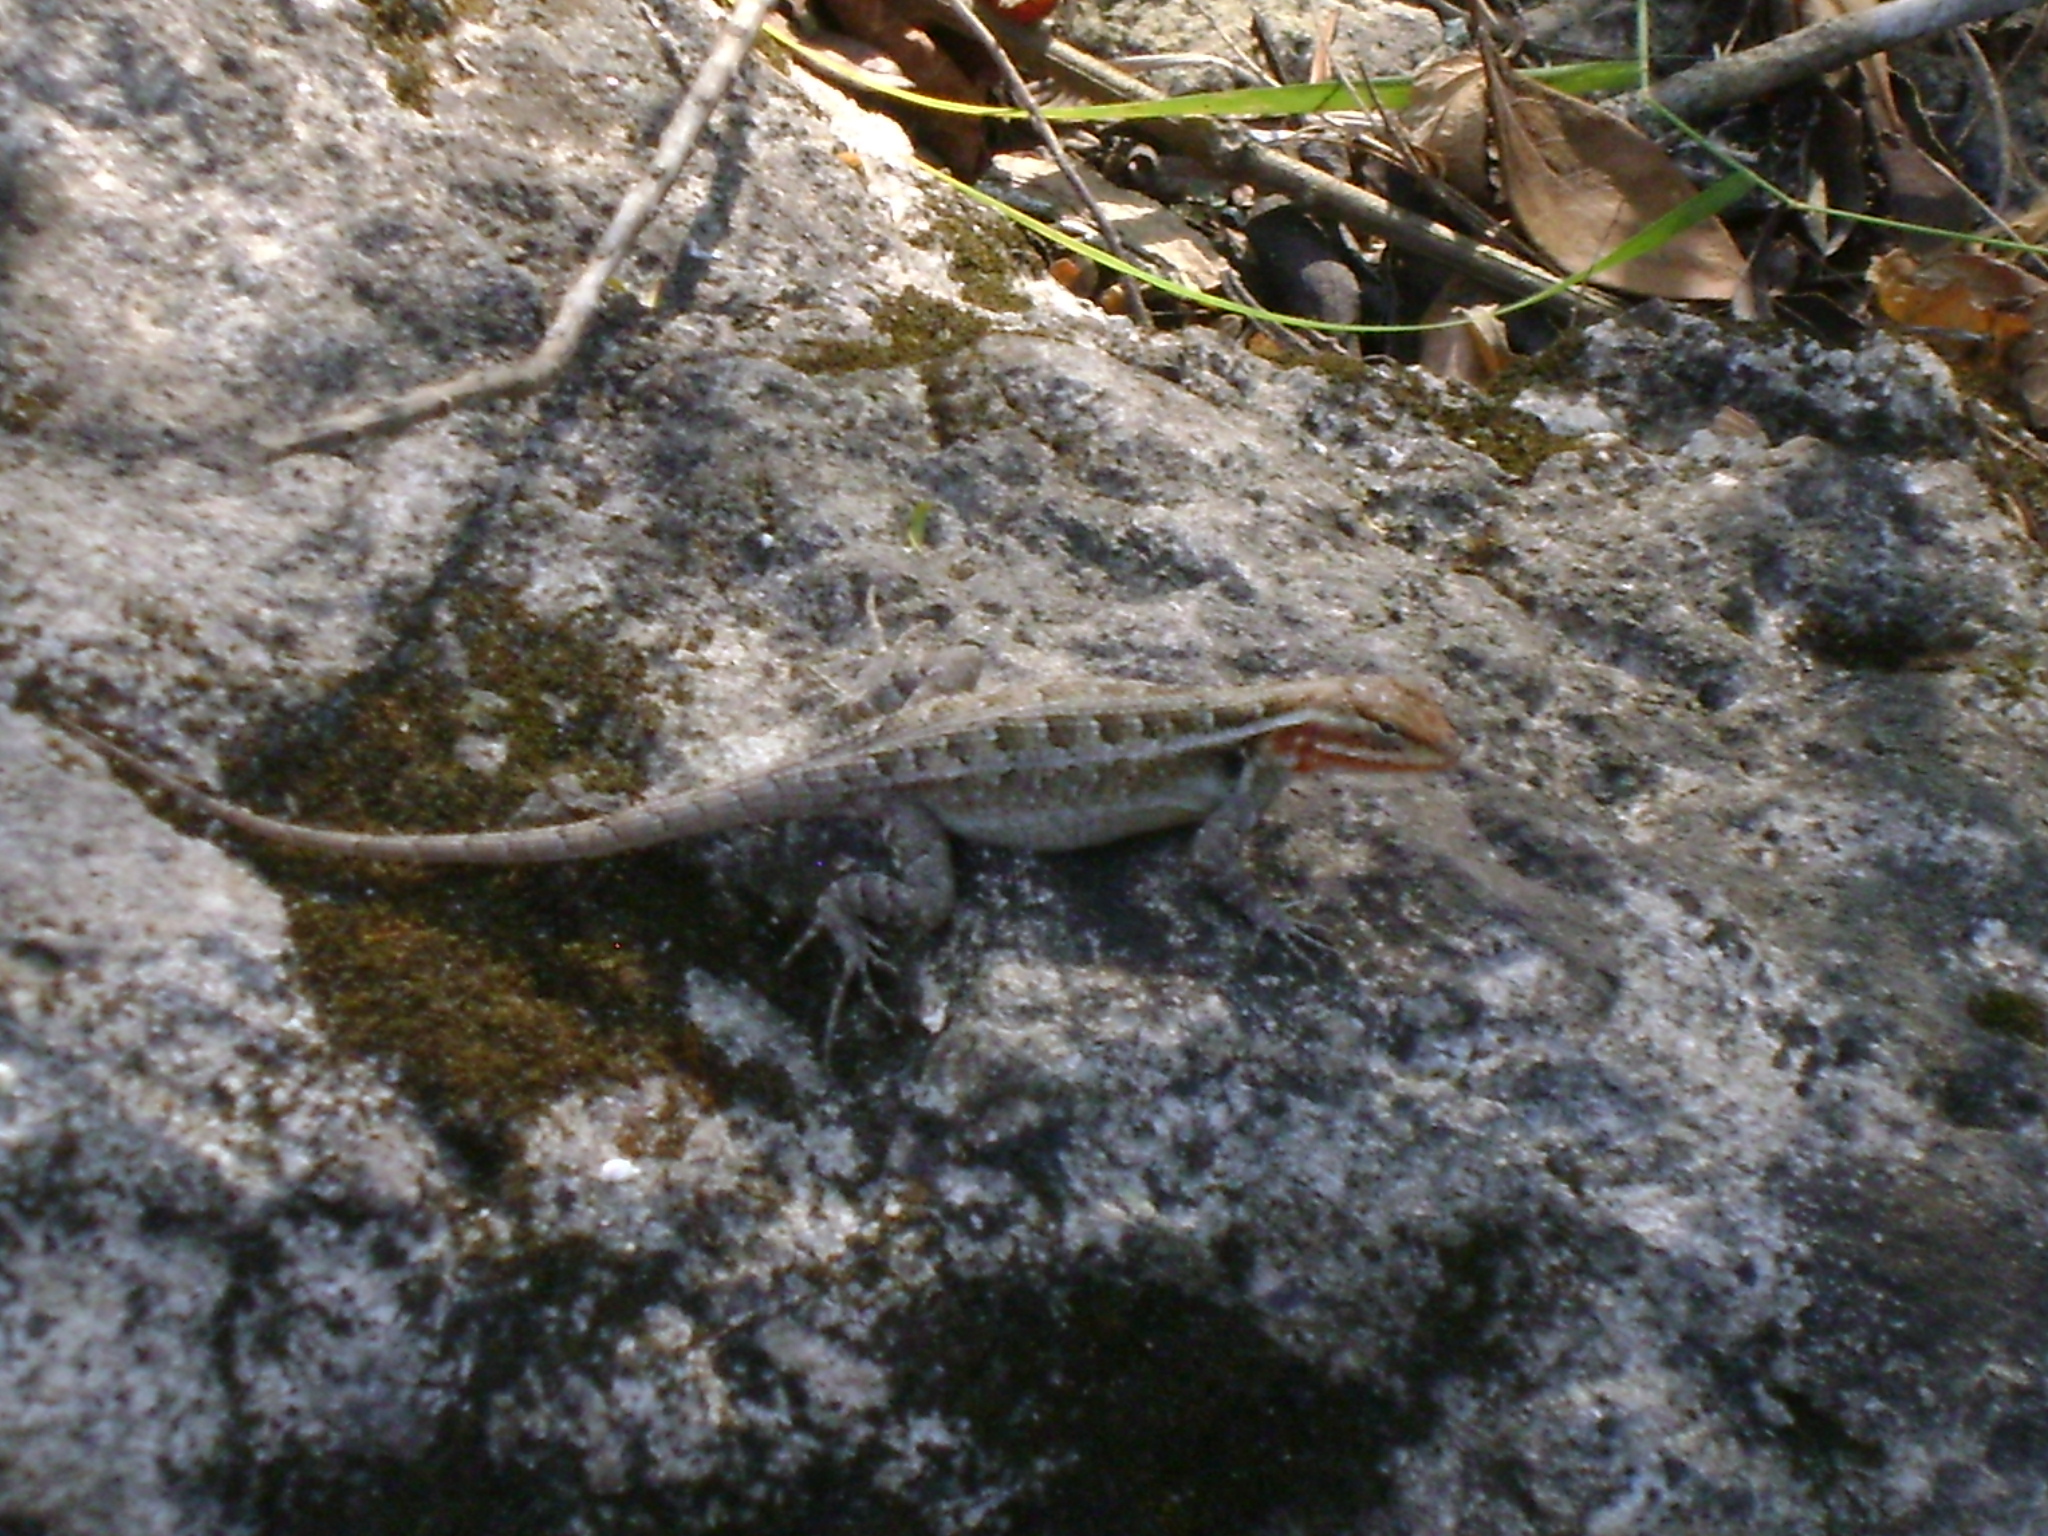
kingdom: Animalia
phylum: Chordata
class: Squamata
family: Phrynosomatidae
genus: Sceloporus
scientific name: Sceloporus variabilis
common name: Rosebelly lizard
